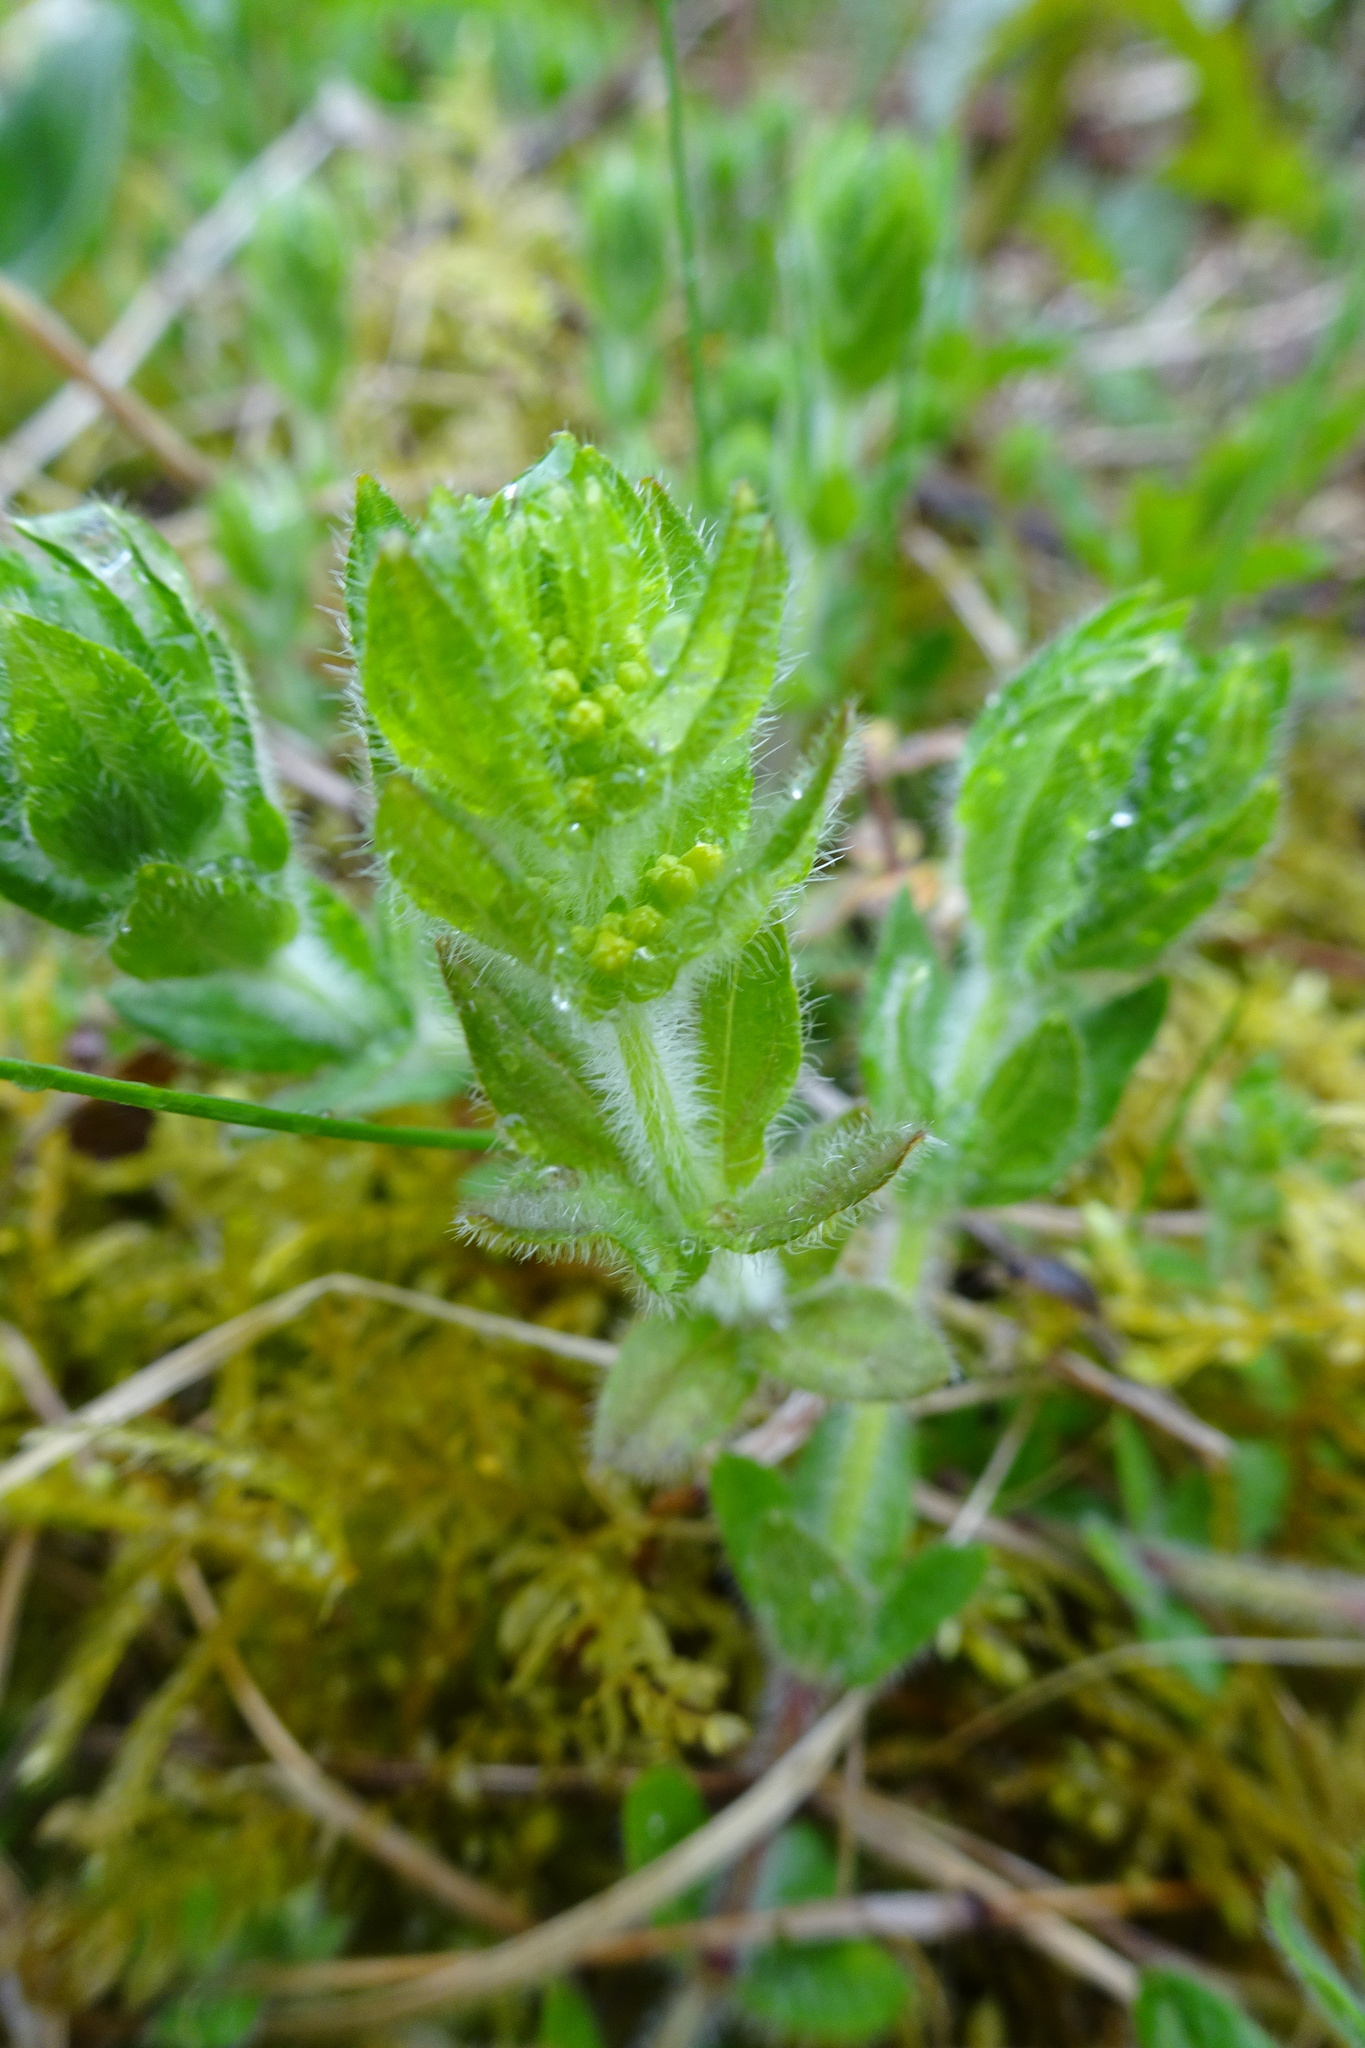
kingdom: Plantae
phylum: Tracheophyta
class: Magnoliopsida
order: Gentianales
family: Rubiaceae
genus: Cruciata
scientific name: Cruciata laevipes
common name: Crosswort
